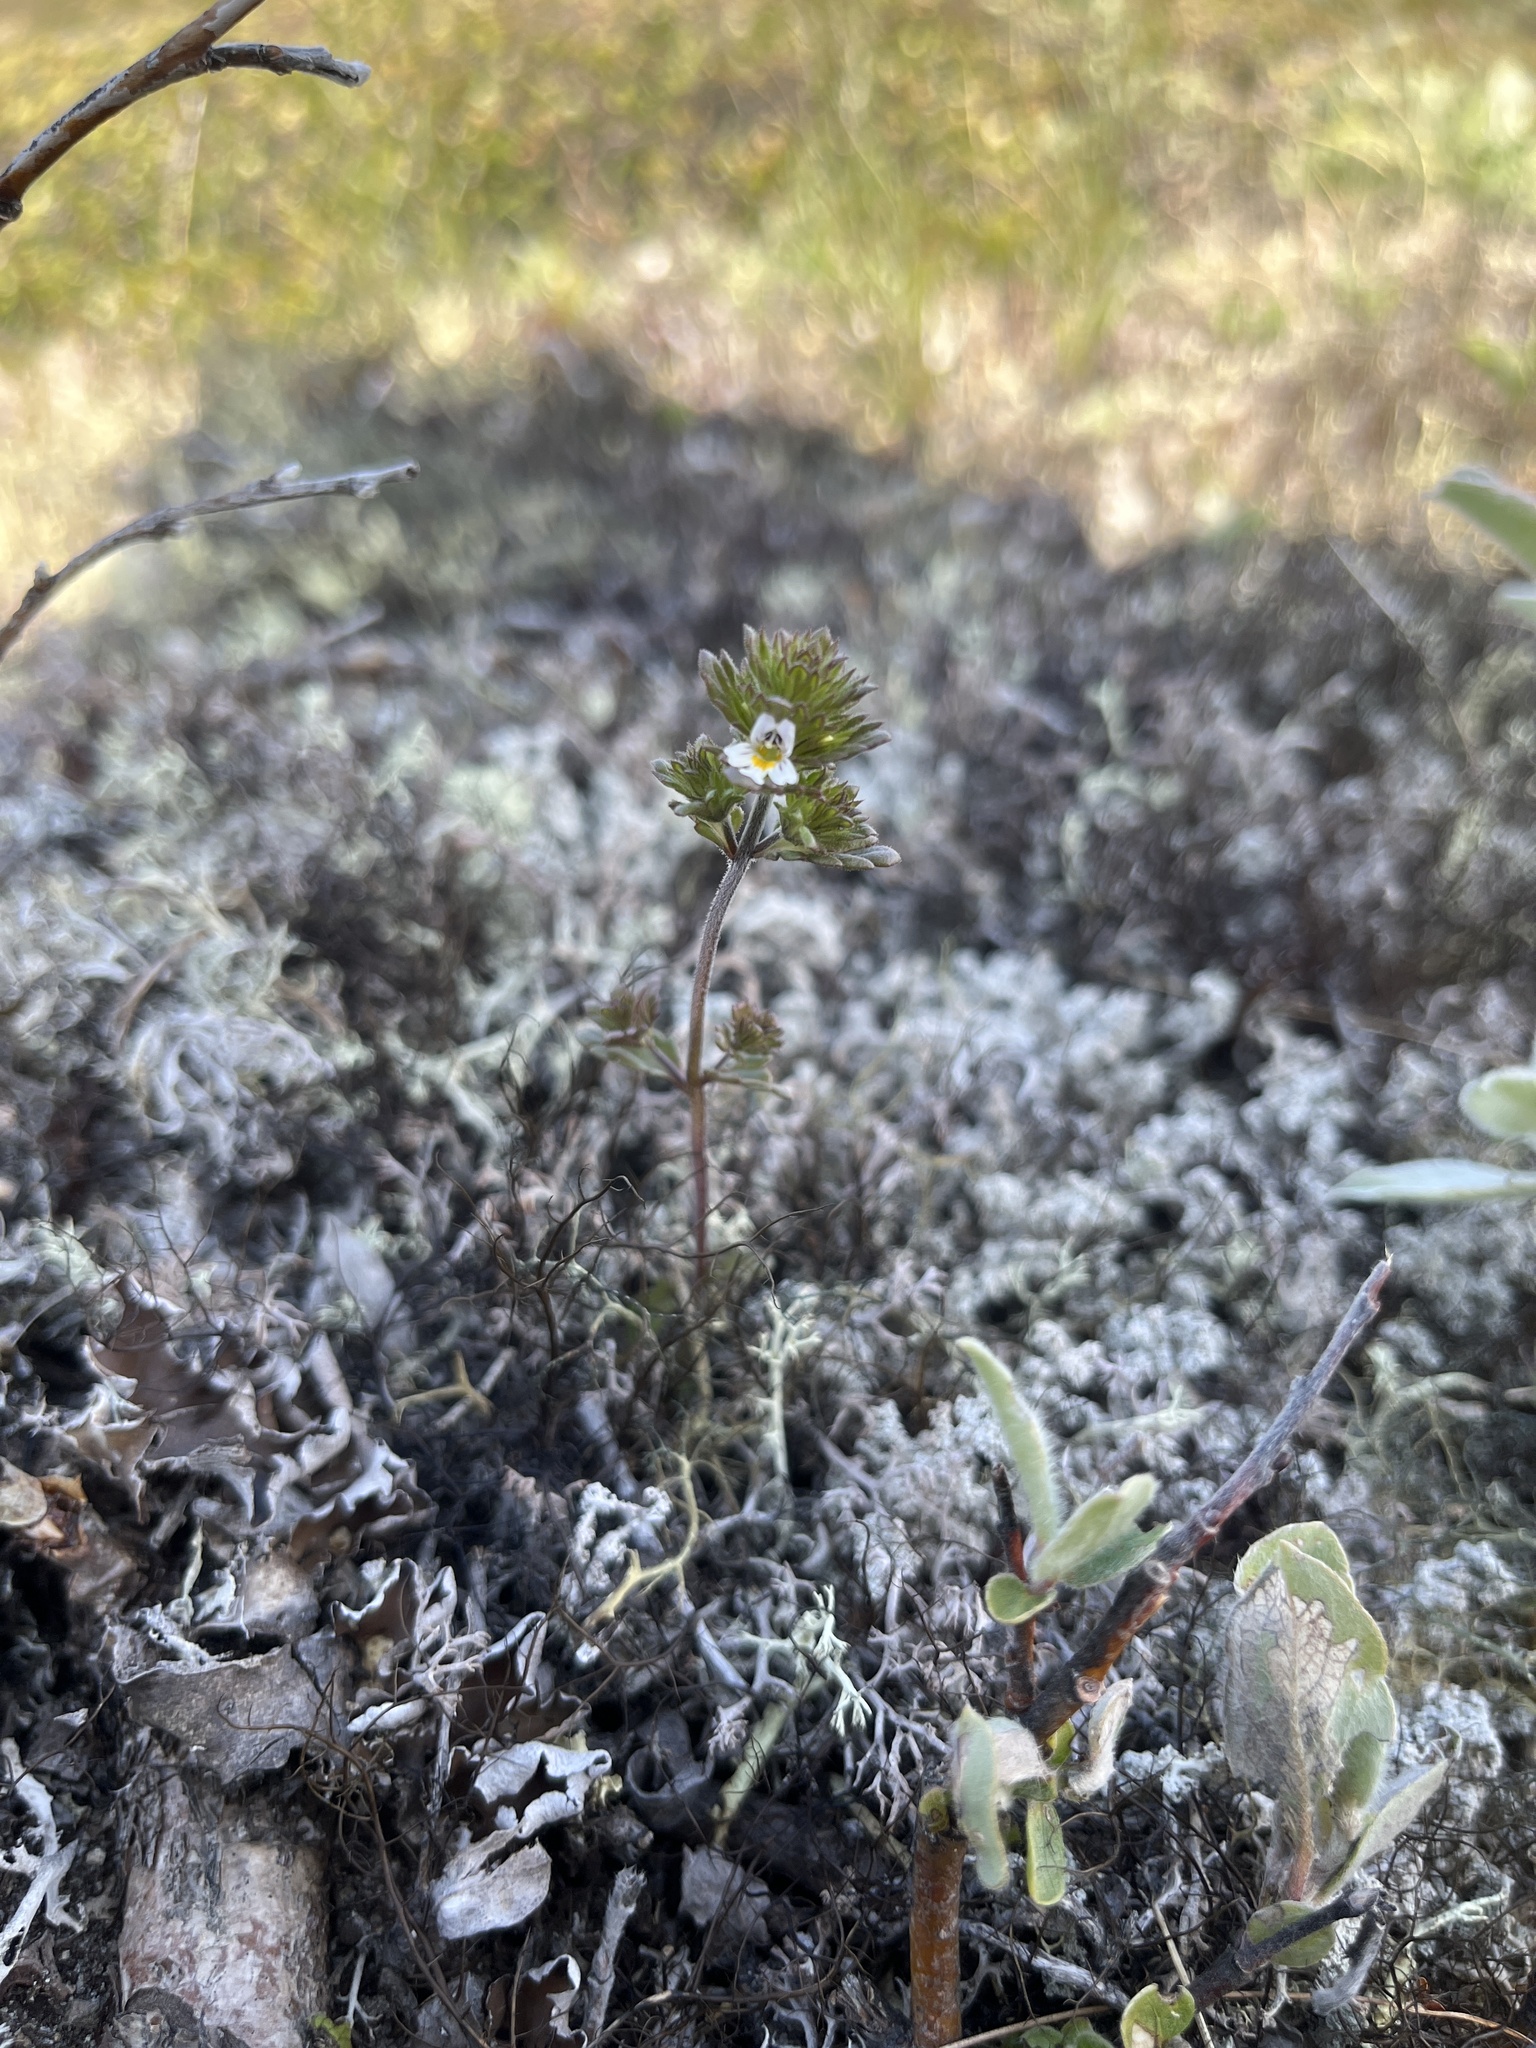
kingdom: Plantae
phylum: Tracheophyta
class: Magnoliopsida
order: Lamiales
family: Orobanchaceae
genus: Euphrasia
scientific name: Euphrasia frigida
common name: An eyebright
